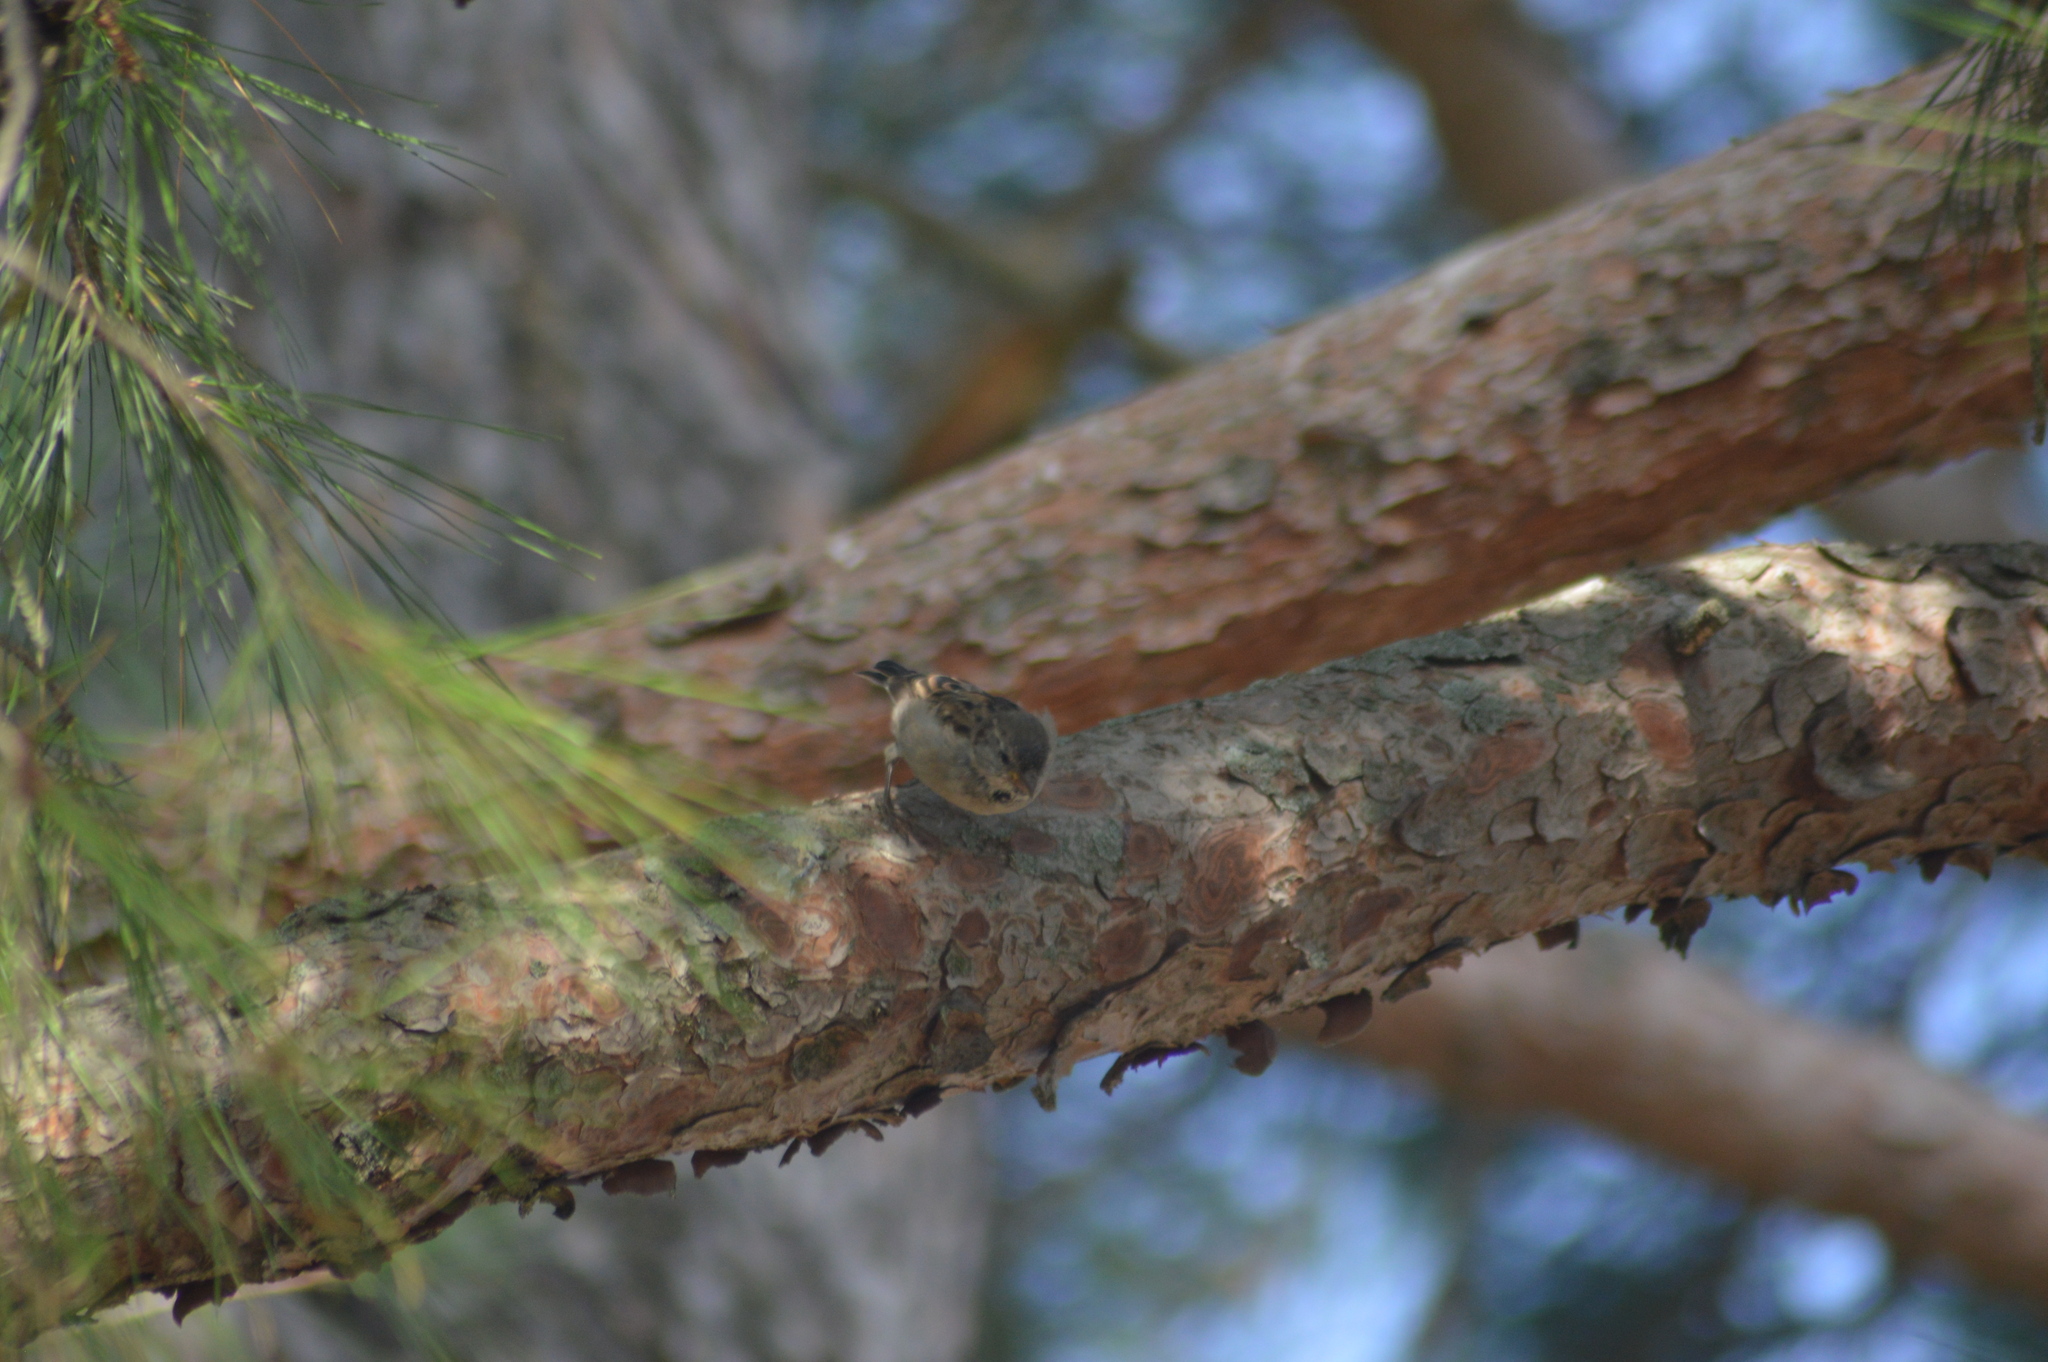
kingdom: Animalia
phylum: Chordata
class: Aves
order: Passeriformes
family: Passeridae
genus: Passer
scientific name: Passer domesticus
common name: House sparrow
